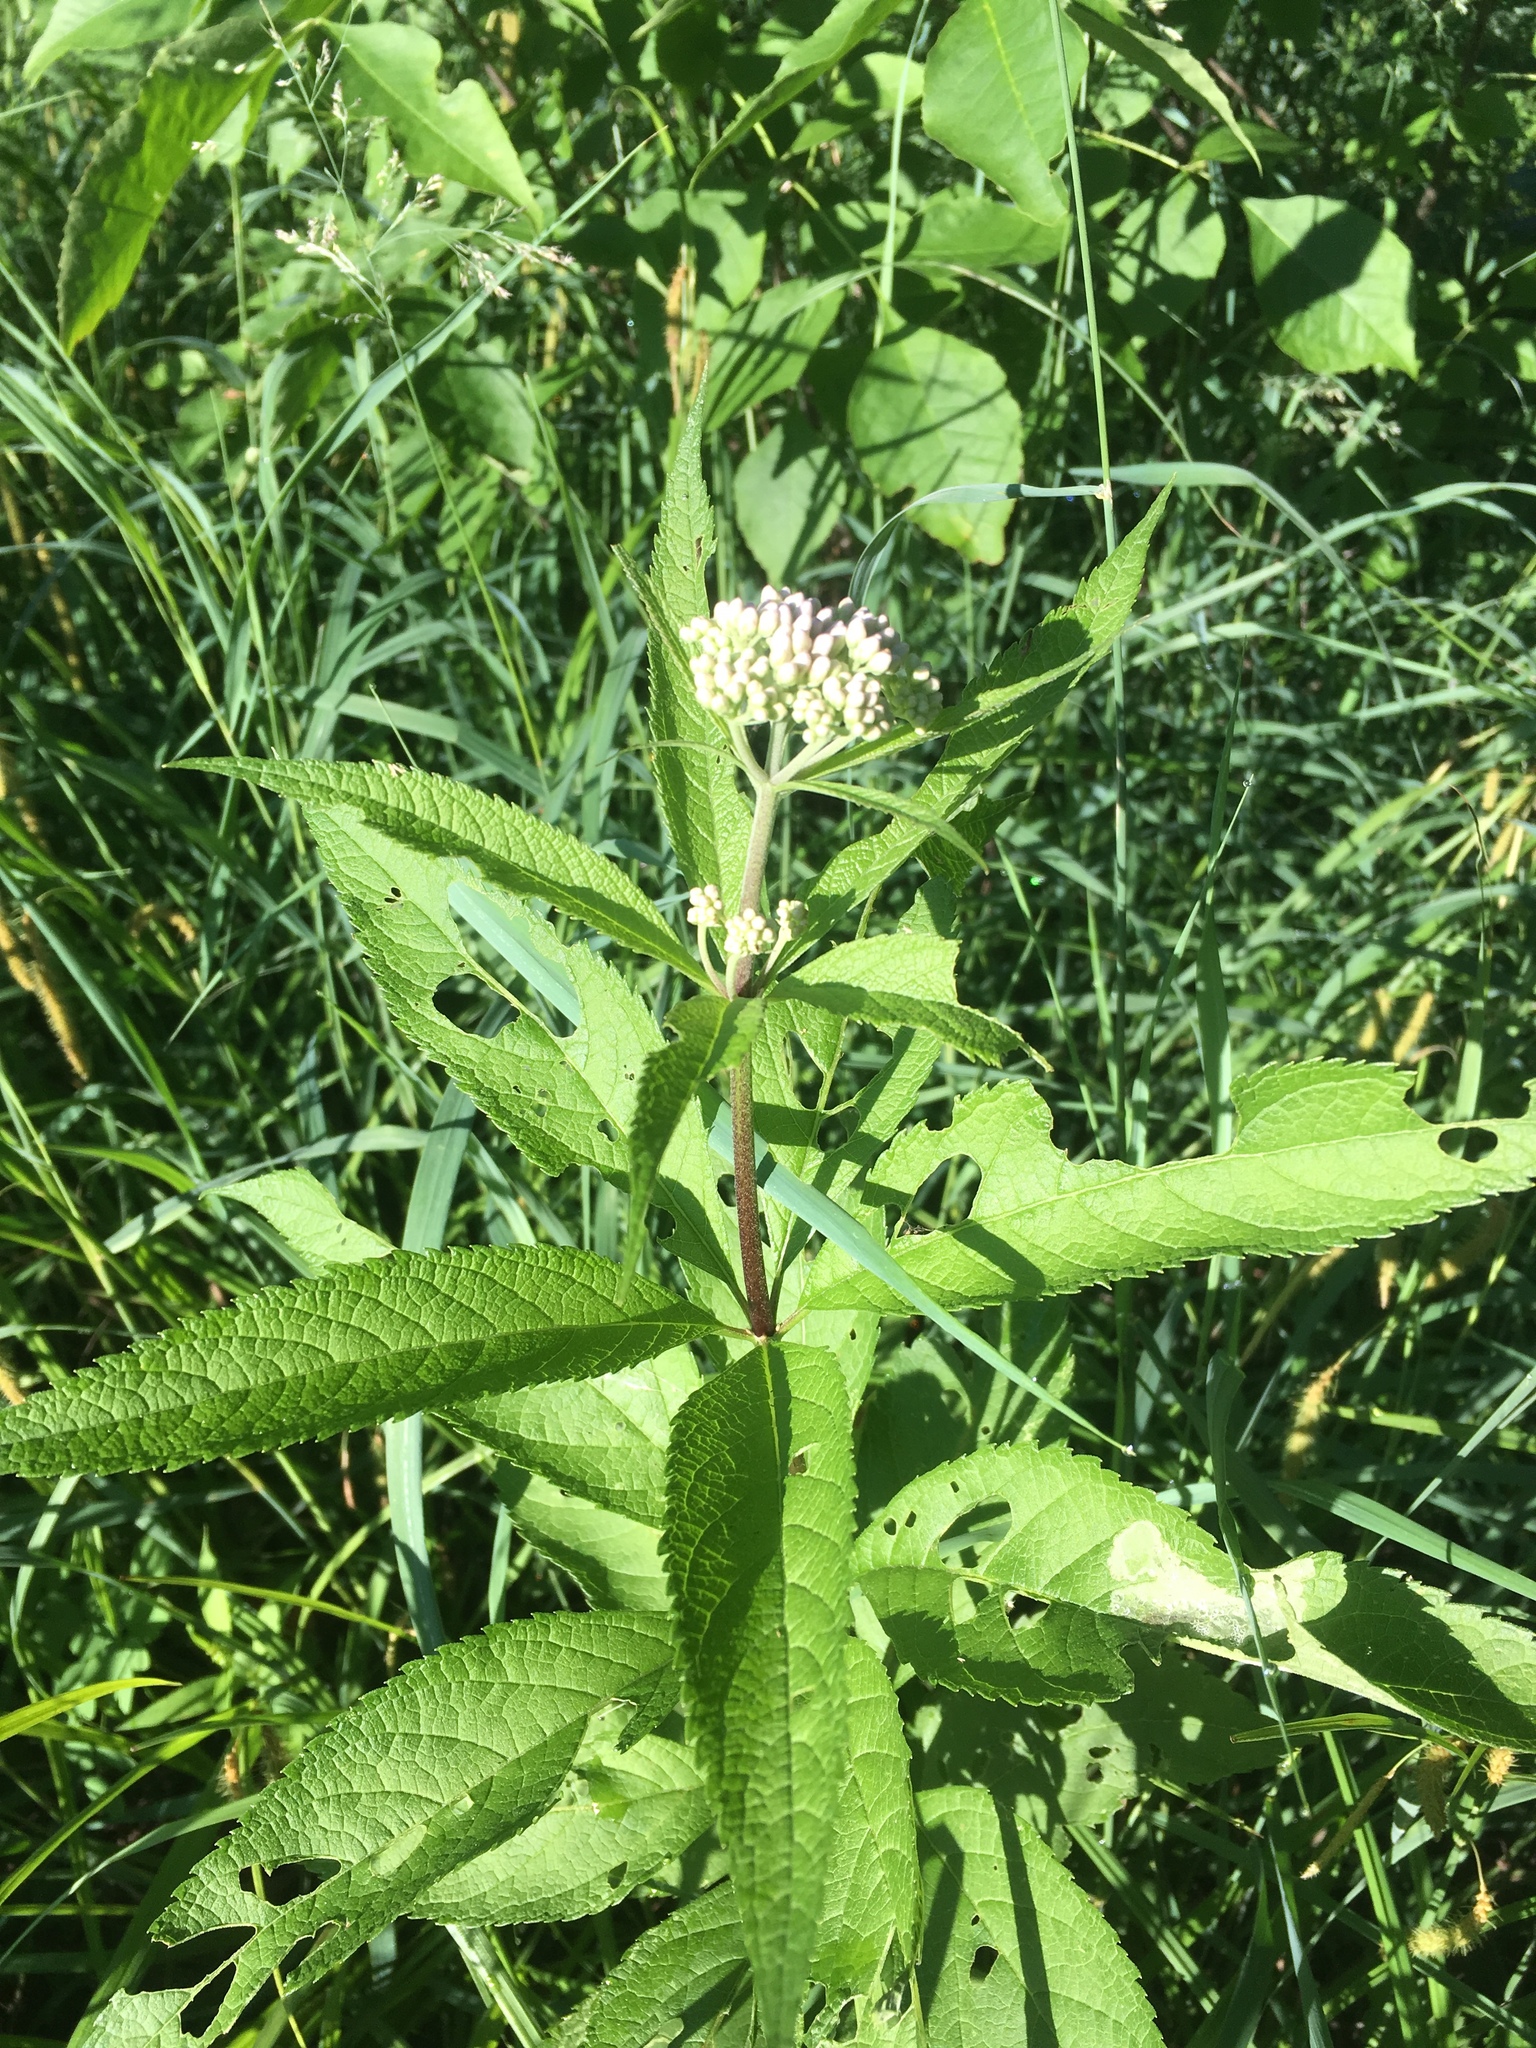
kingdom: Plantae
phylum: Tracheophyta
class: Magnoliopsida
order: Asterales
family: Asteraceae
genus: Eutrochium
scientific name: Eutrochium maculatum
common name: Spotted joe pye weed
